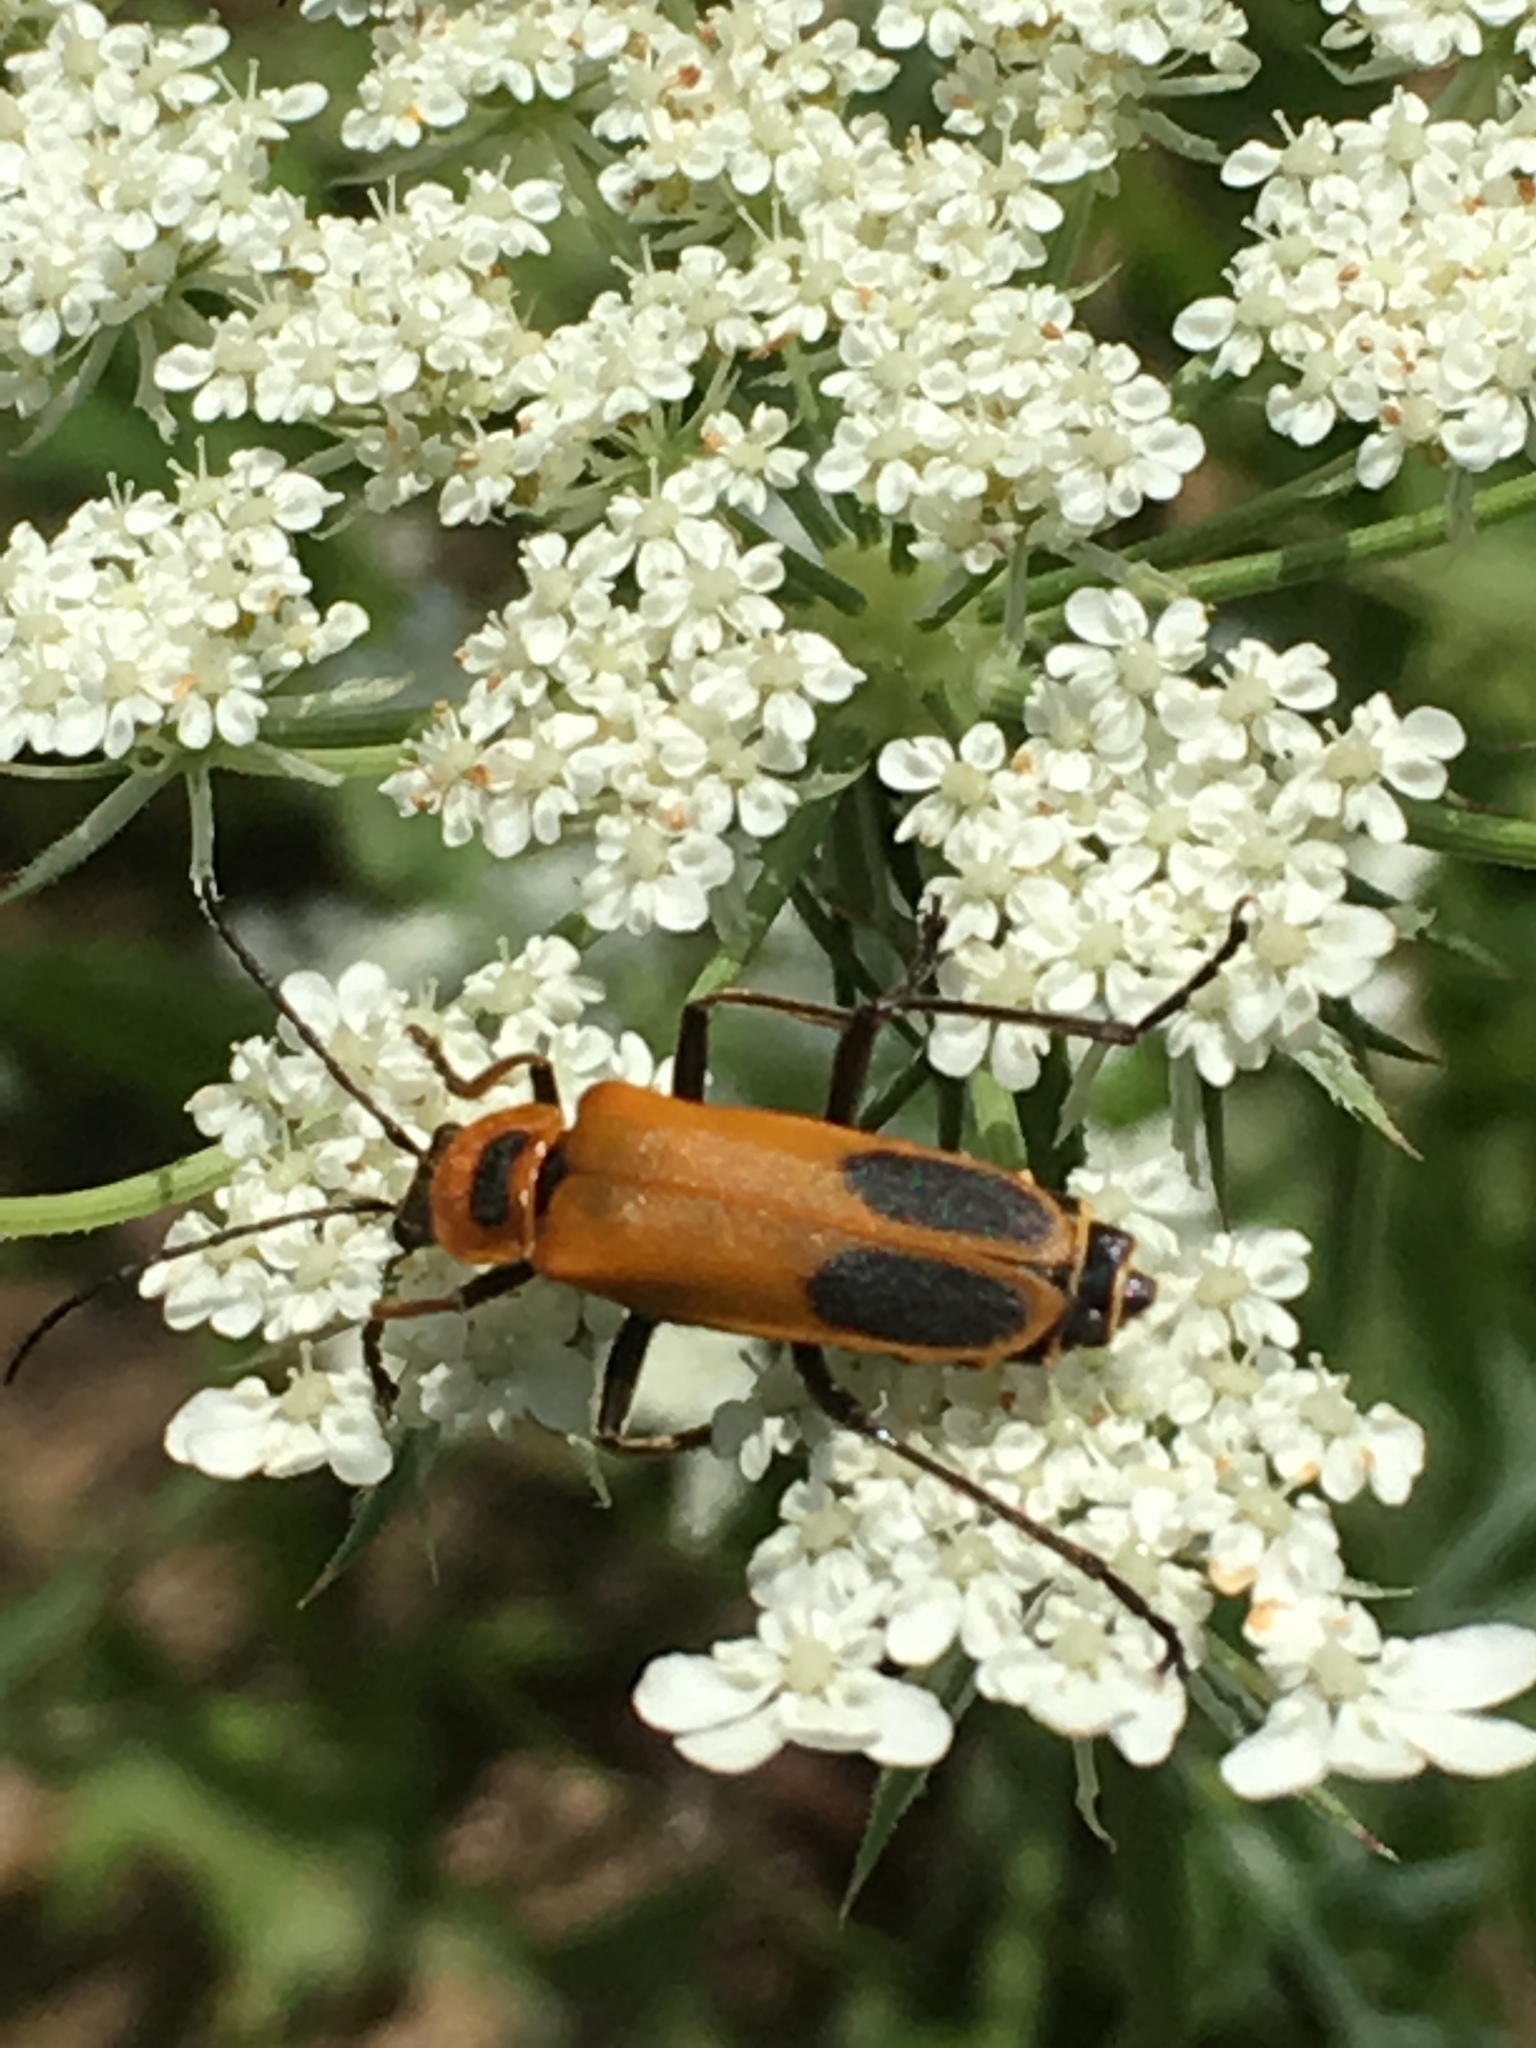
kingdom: Animalia
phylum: Arthropoda
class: Insecta
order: Coleoptera
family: Cantharidae
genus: Chauliognathus
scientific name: Chauliognathus pensylvanicus
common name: Goldenrod soldier beetle
